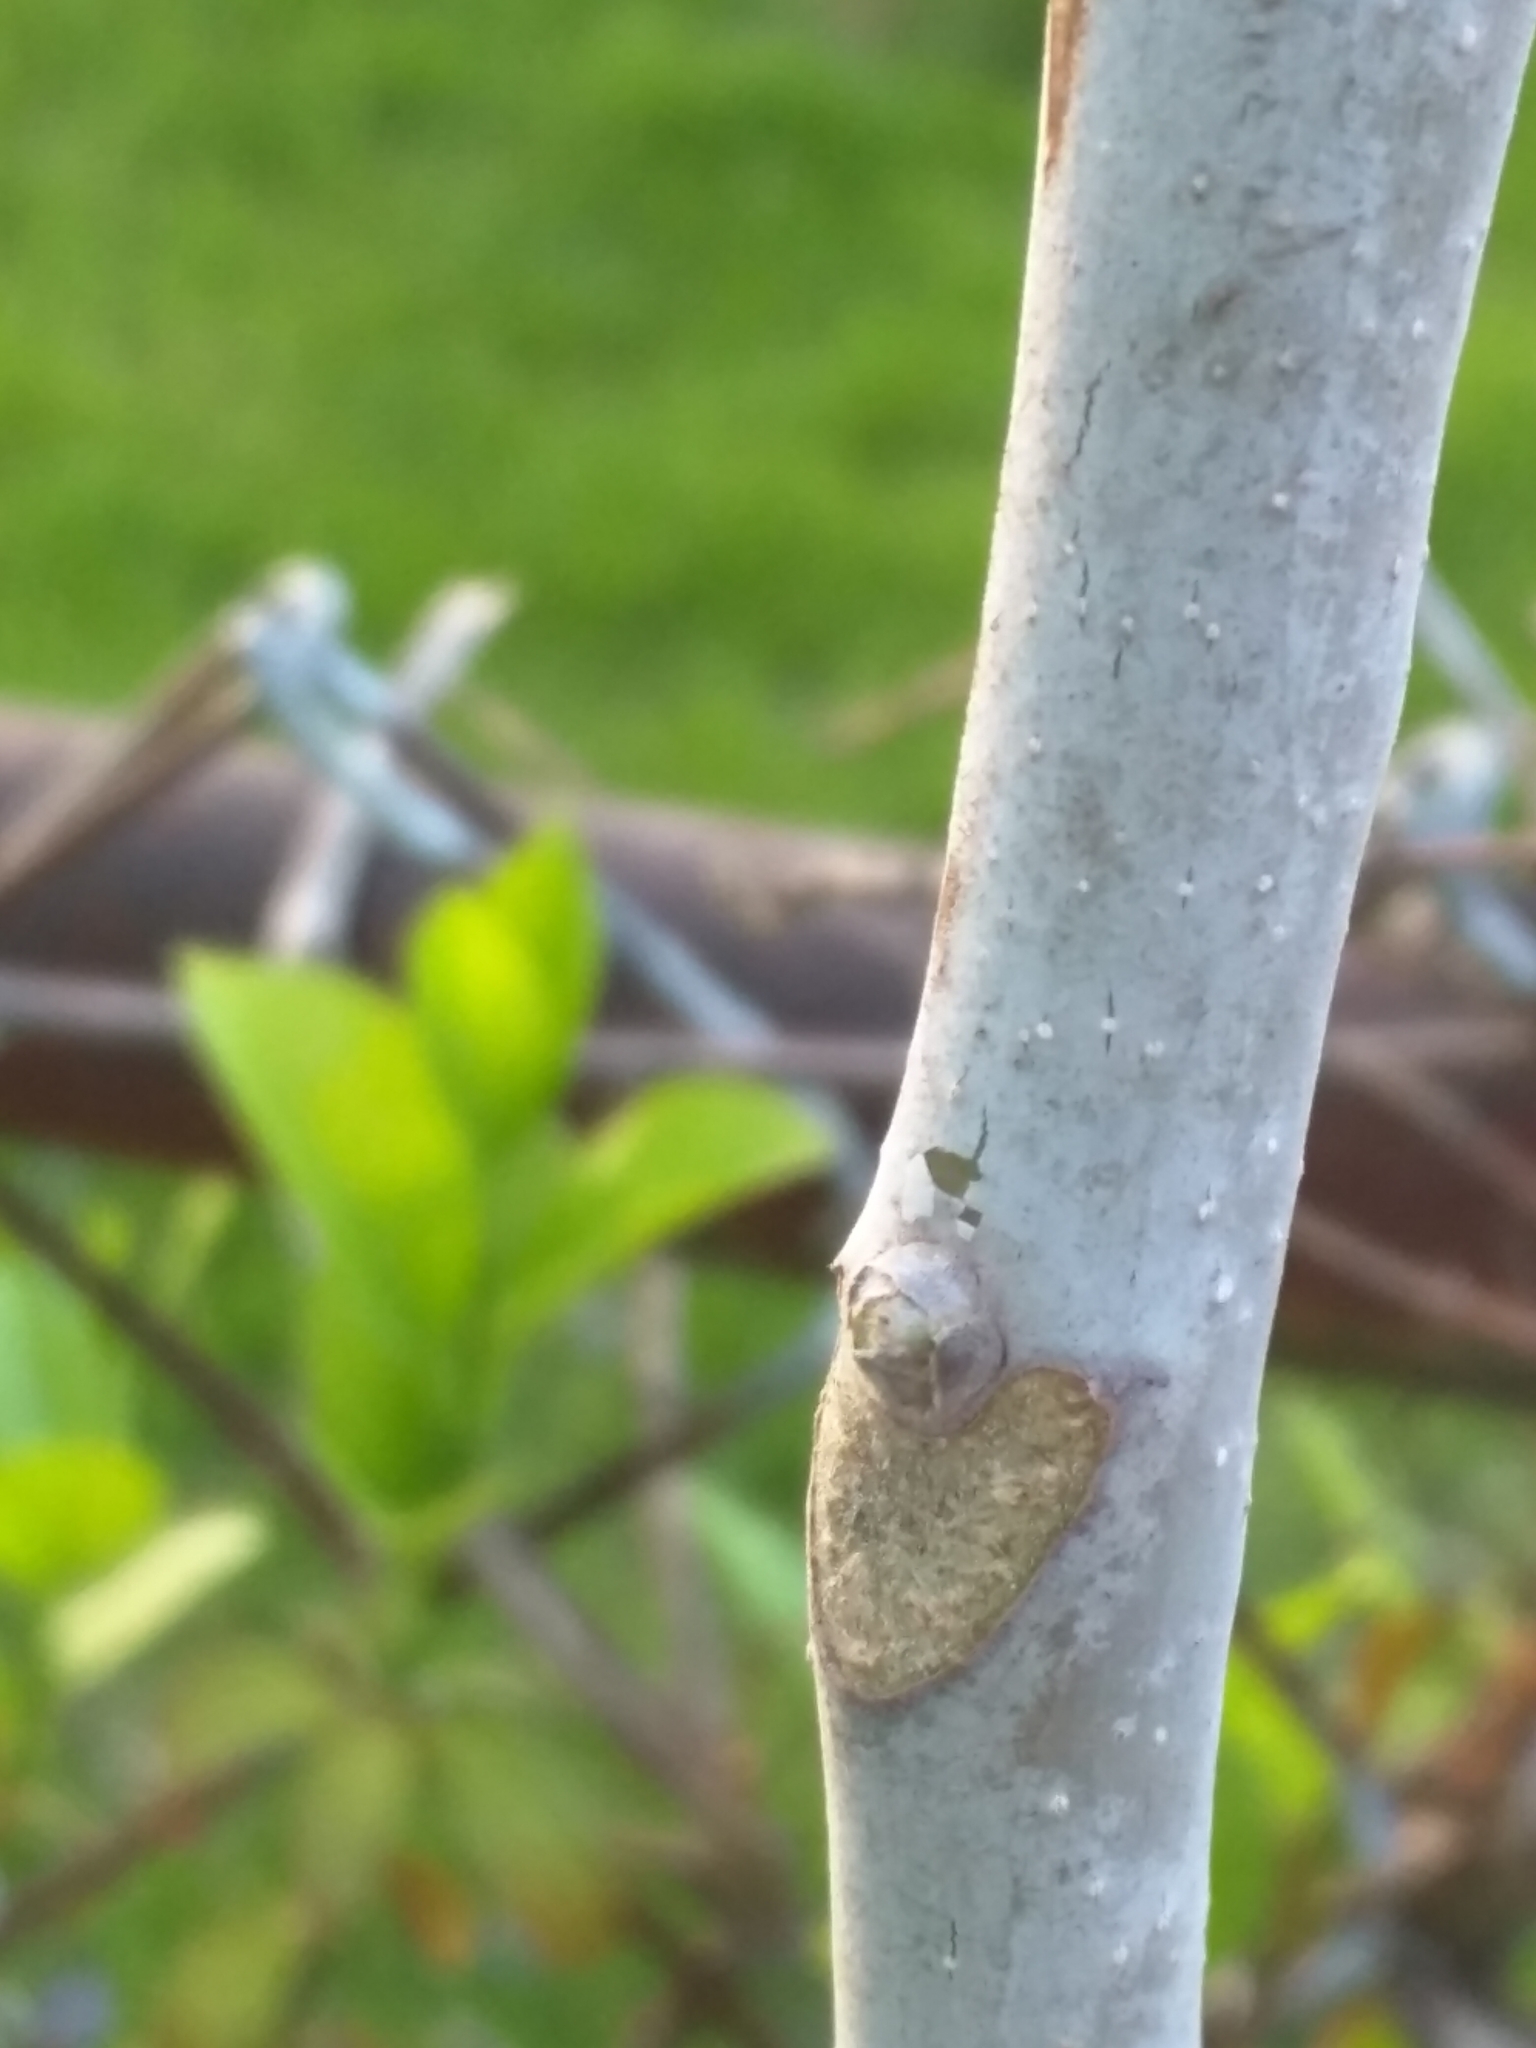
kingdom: Plantae
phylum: Tracheophyta
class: Magnoliopsida
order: Sapindales
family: Simaroubaceae
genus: Ailanthus
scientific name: Ailanthus altissima
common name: Tree-of-heaven
